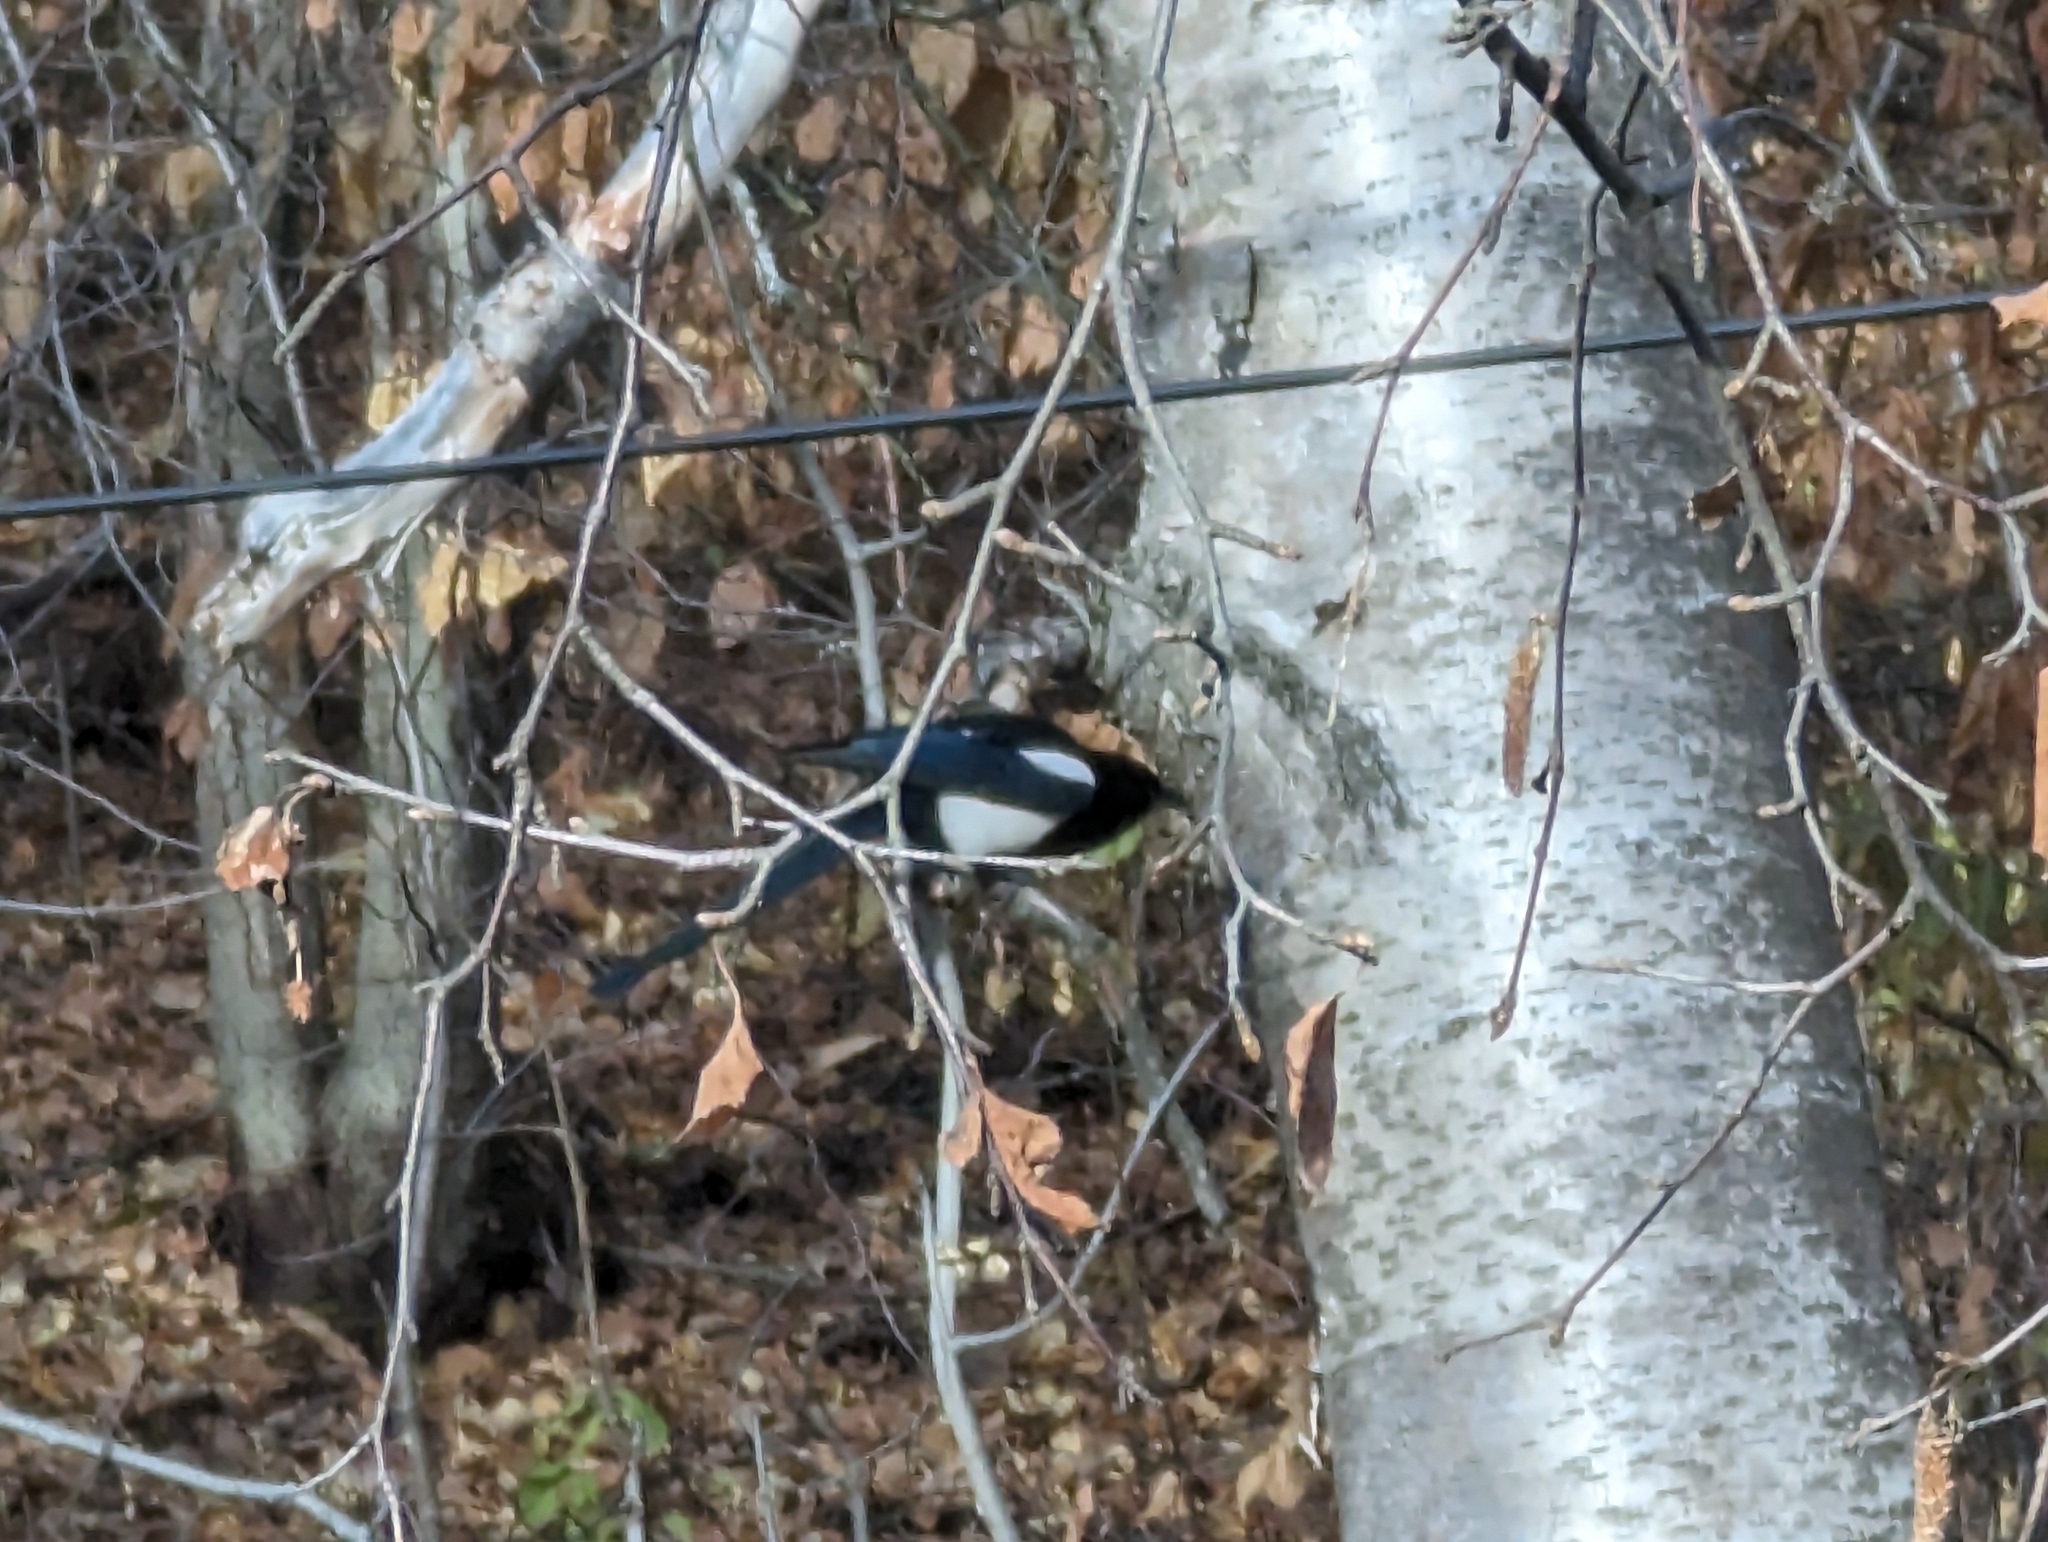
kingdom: Animalia
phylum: Chordata
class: Aves
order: Passeriformes
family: Corvidae
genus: Pica
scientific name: Pica hudsonia
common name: Black-billed magpie
